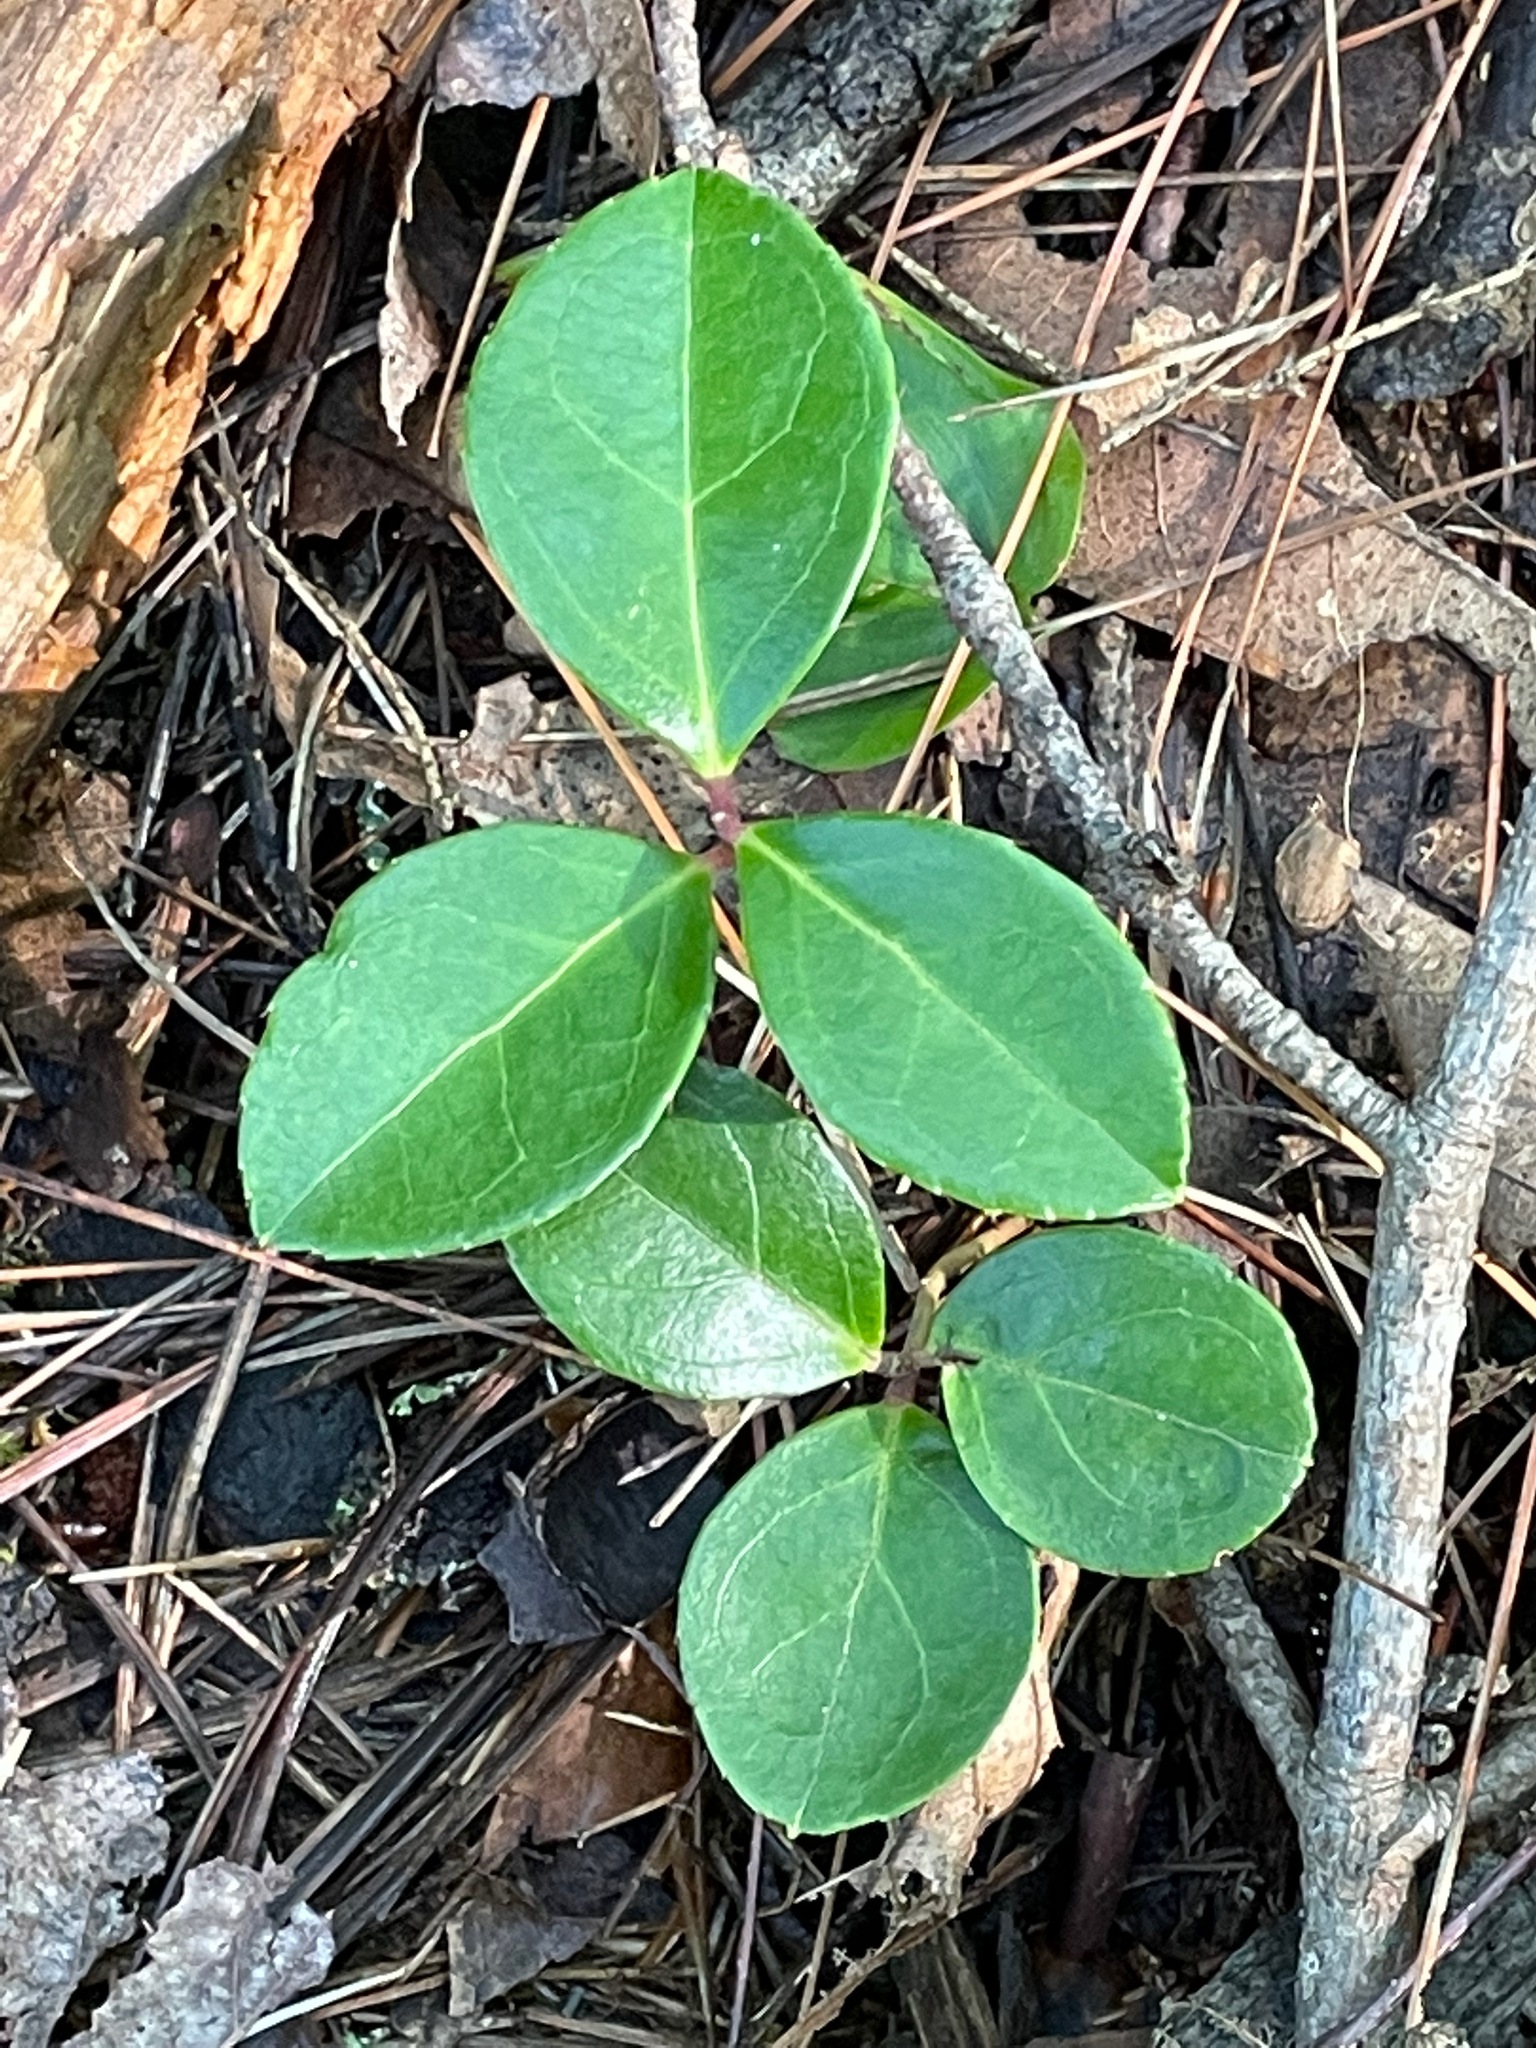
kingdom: Plantae
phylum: Tracheophyta
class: Magnoliopsida
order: Ericales
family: Ericaceae
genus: Gaultheria
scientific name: Gaultheria procumbens
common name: Checkerberry
